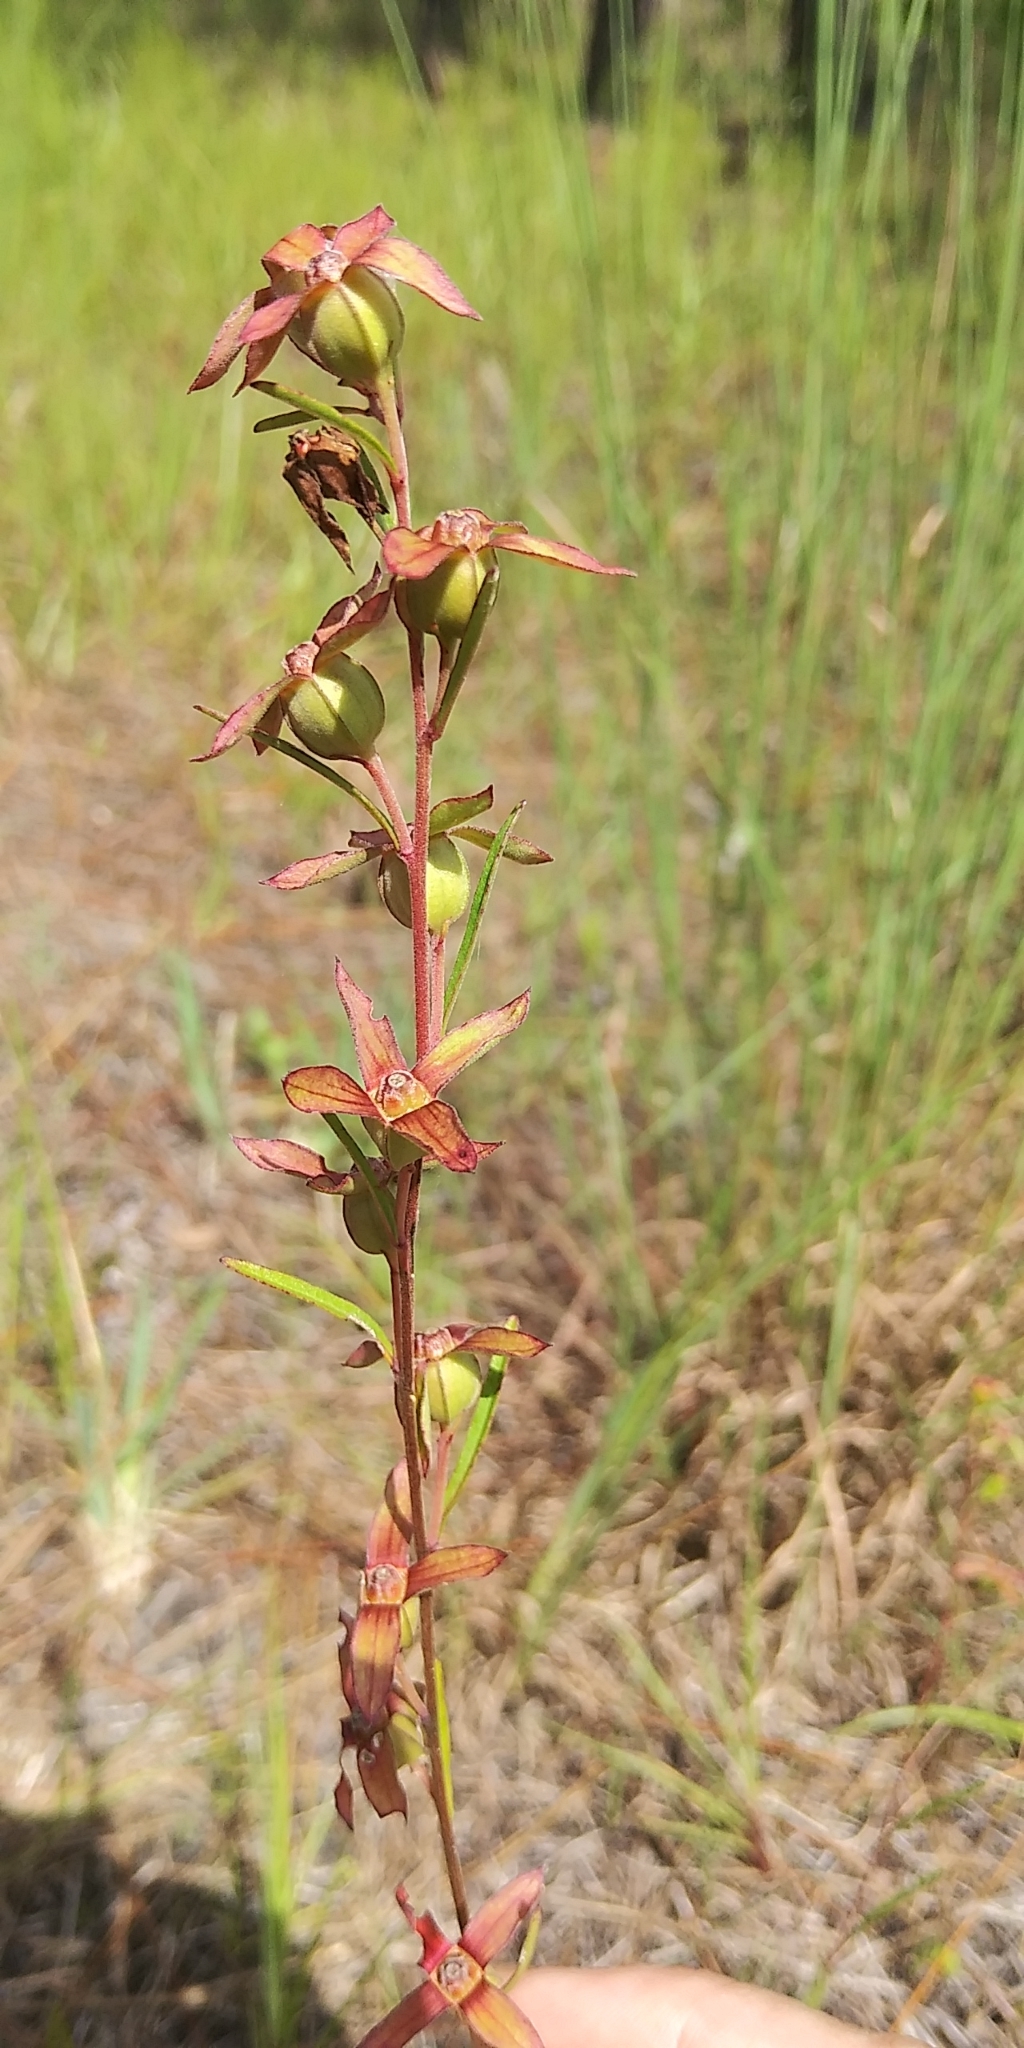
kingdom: Plantae
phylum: Tracheophyta
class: Magnoliopsida
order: Myrtales
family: Onagraceae
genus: Ludwigia
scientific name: Ludwigia maritima
